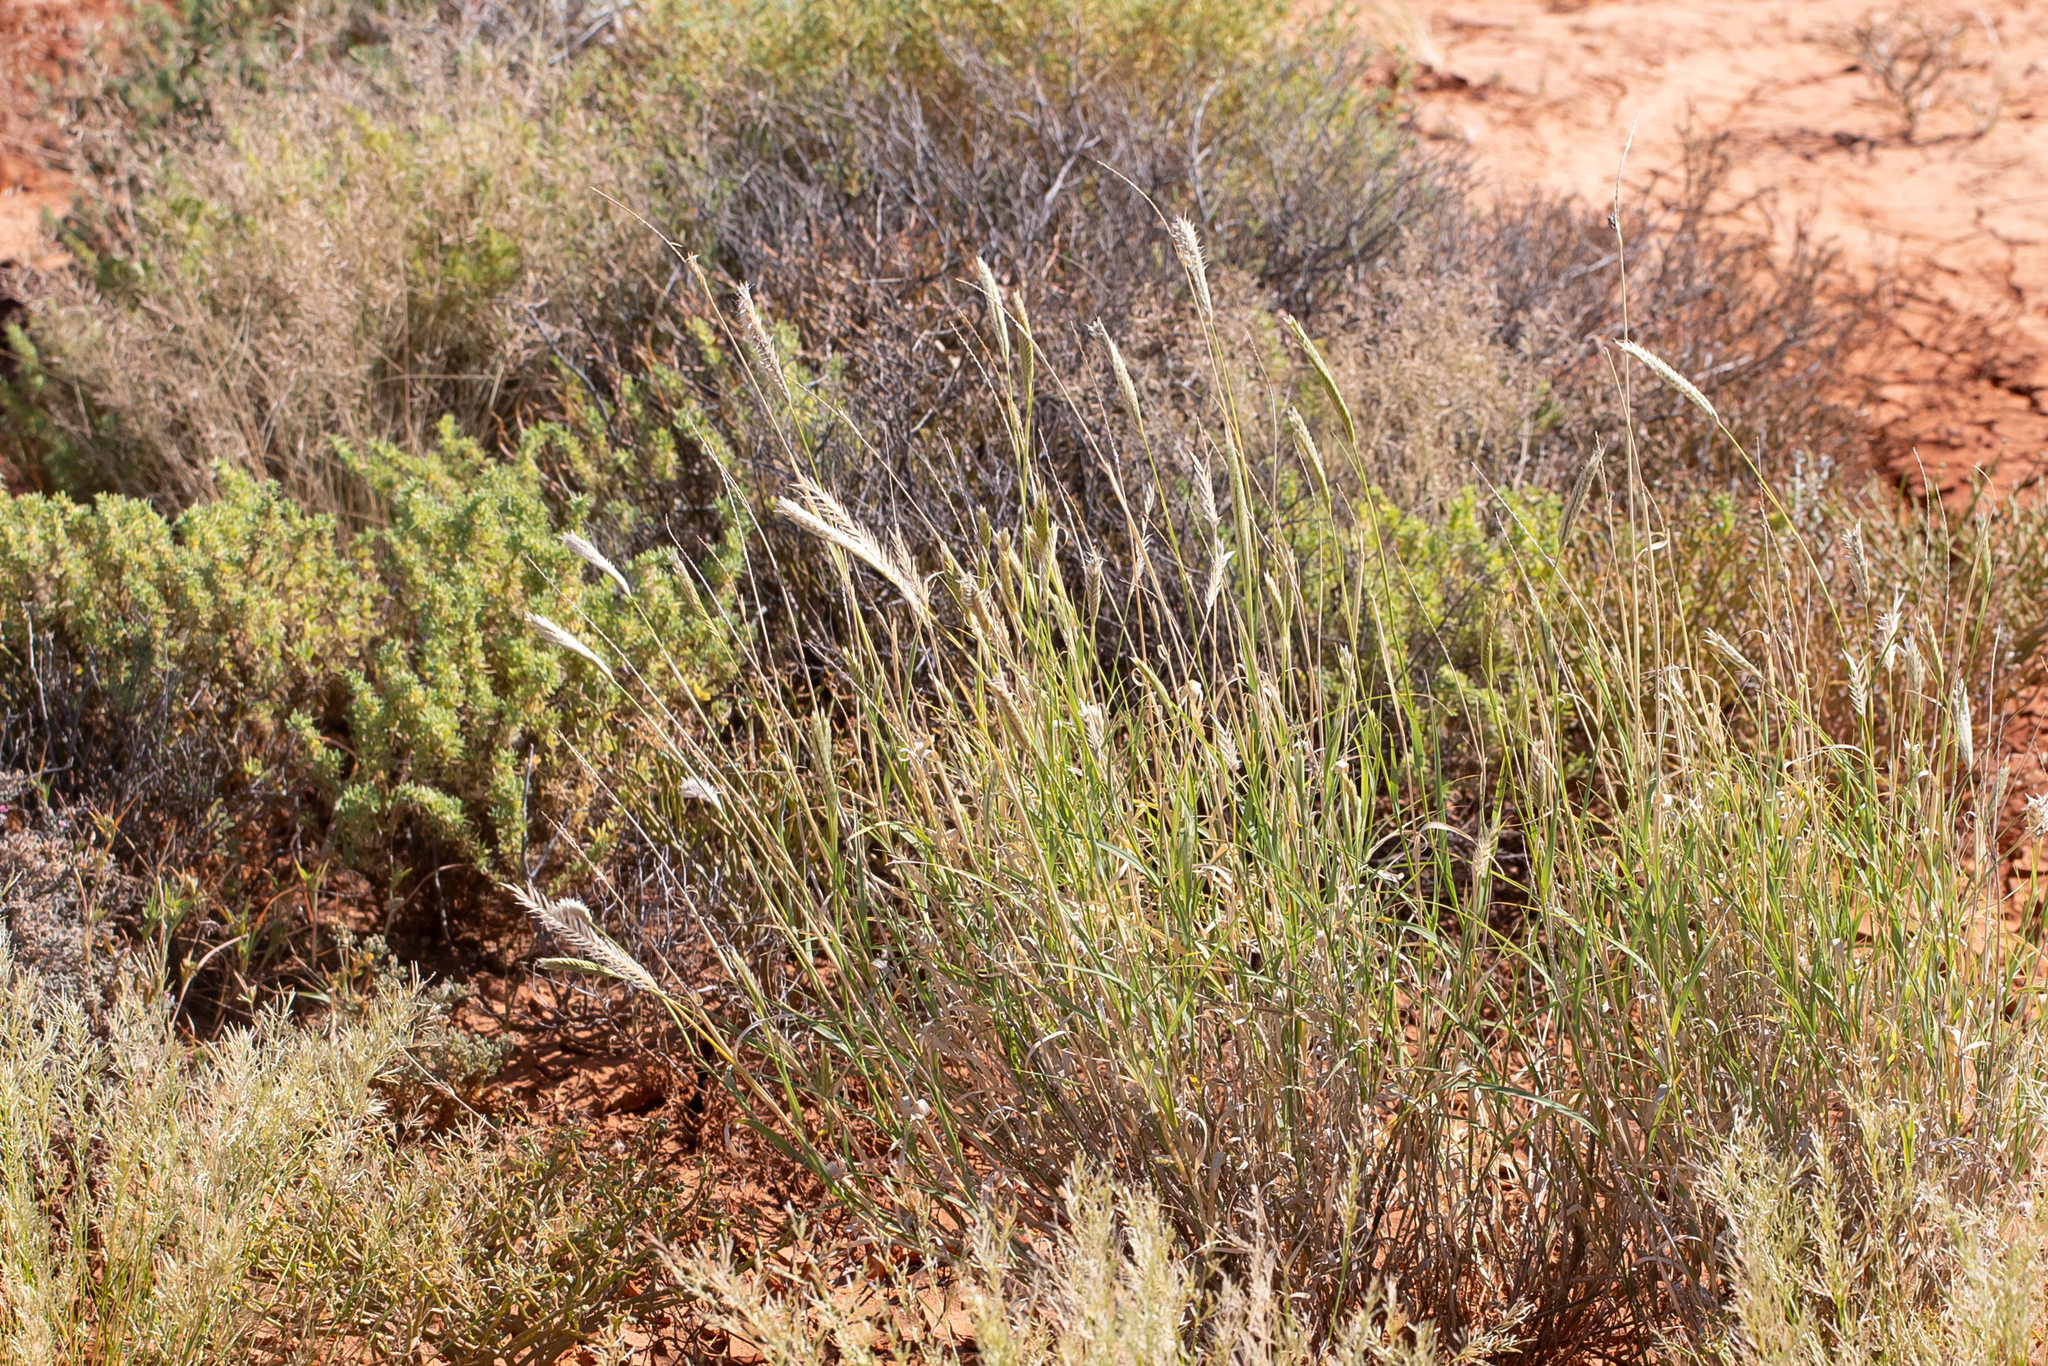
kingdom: Plantae
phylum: Tracheophyta
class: Liliopsida
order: Poales
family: Poaceae
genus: Astrebla
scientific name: Astrebla pectinata
